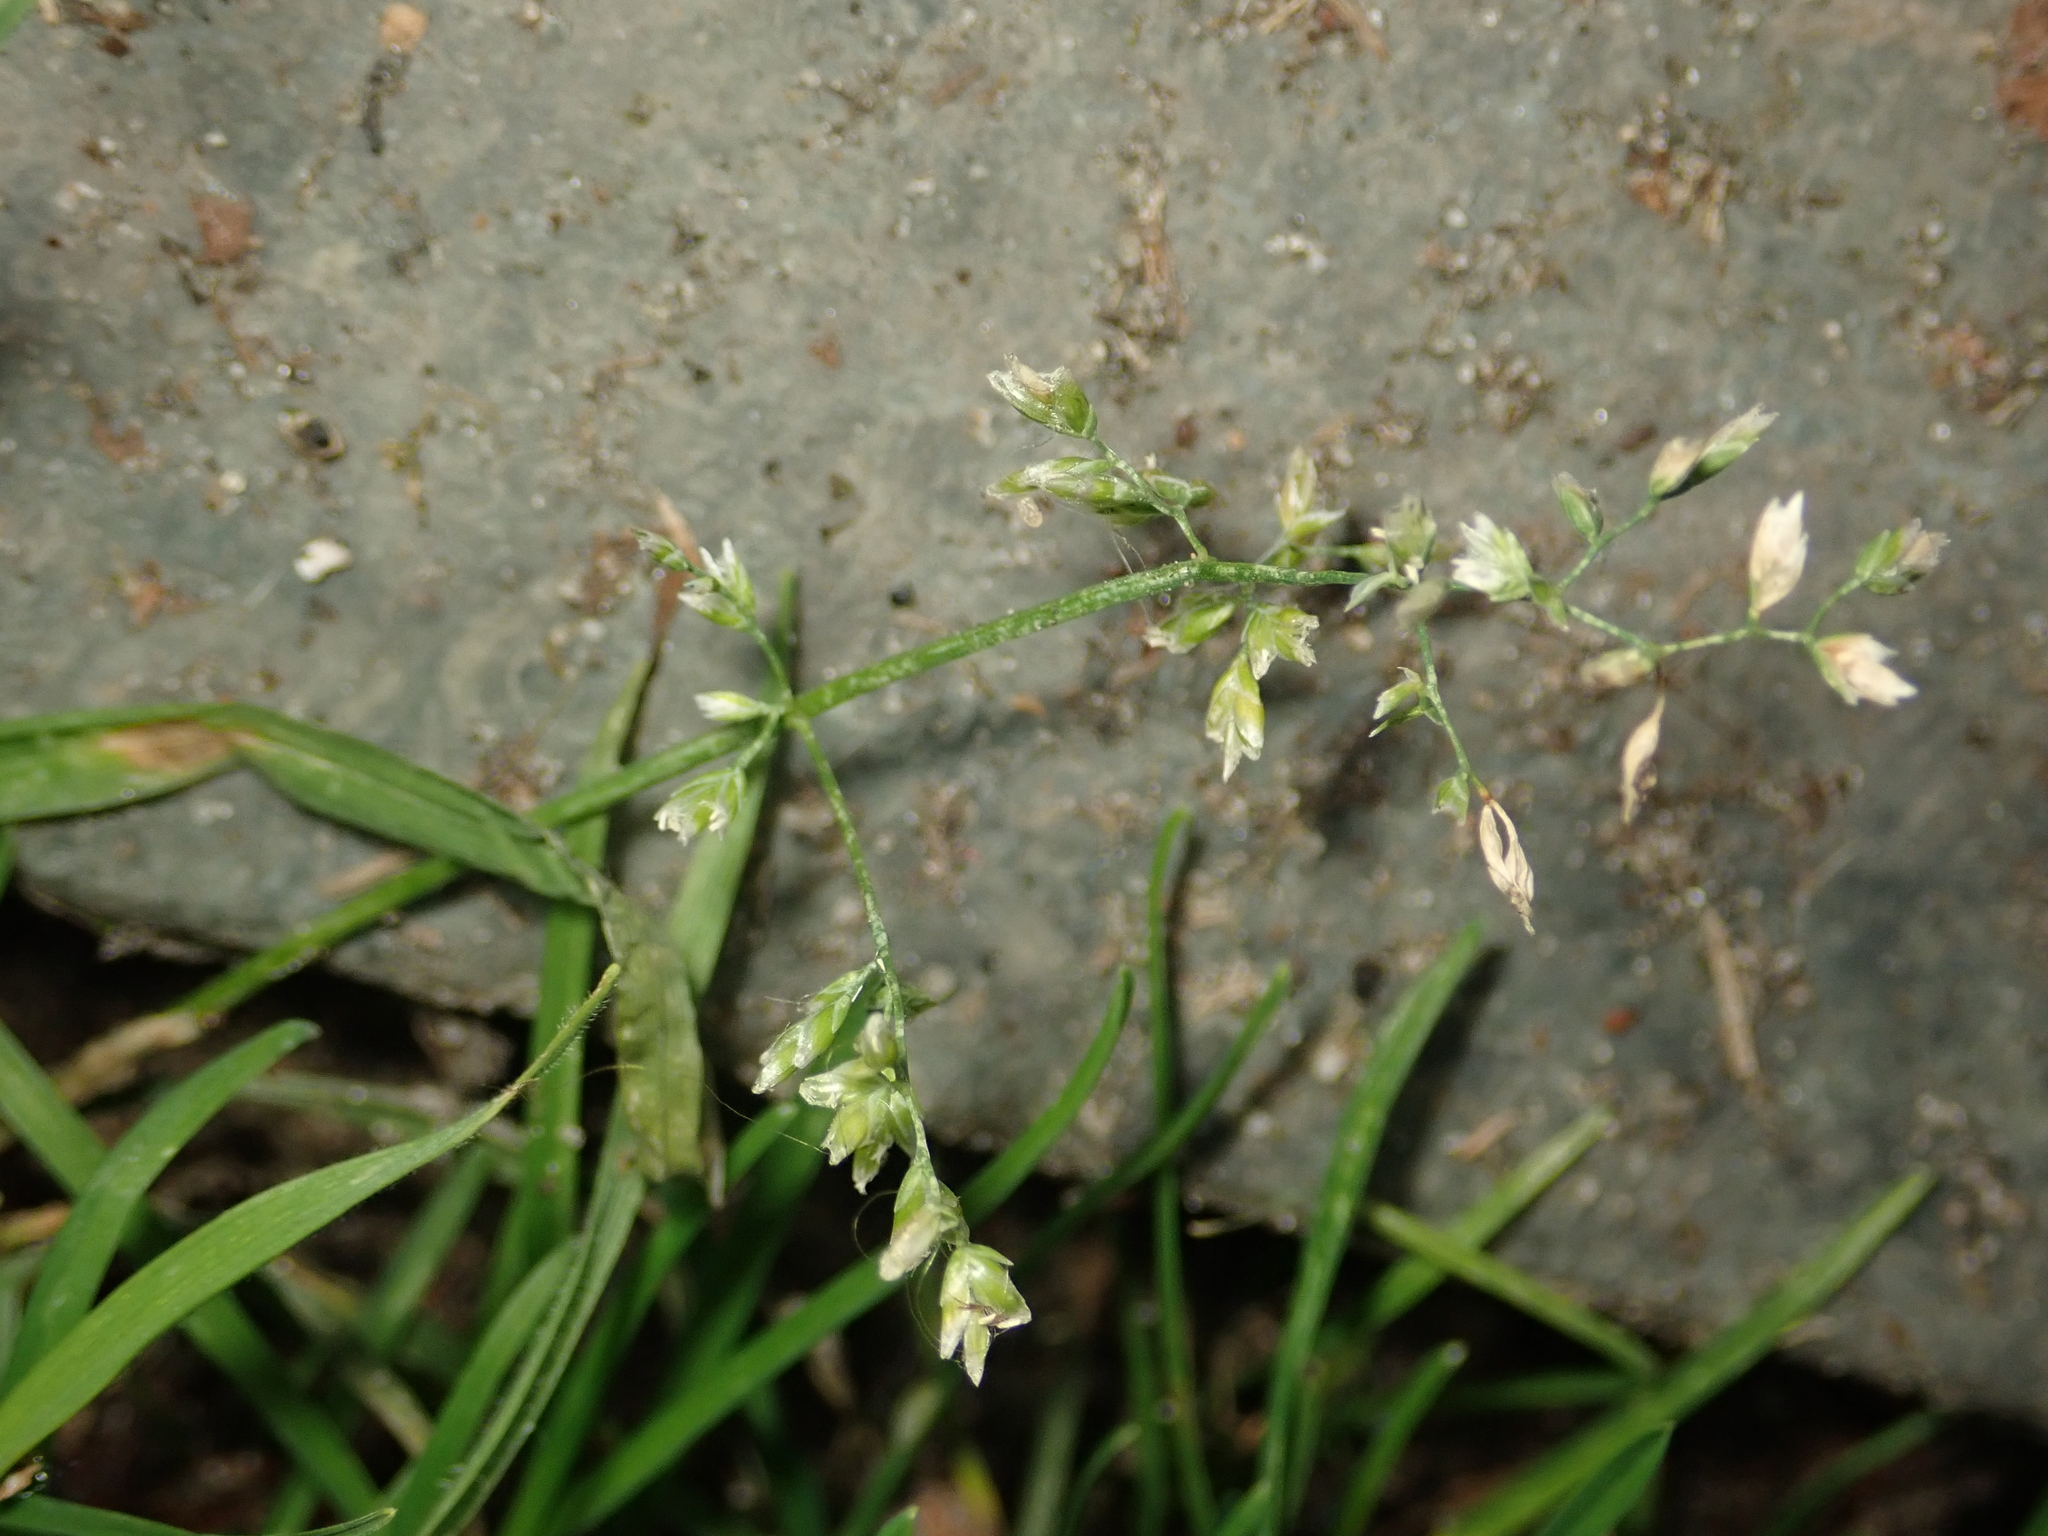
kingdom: Plantae
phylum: Tracheophyta
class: Liliopsida
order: Poales
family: Poaceae
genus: Poa
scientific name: Poa annua
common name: Annual bluegrass
